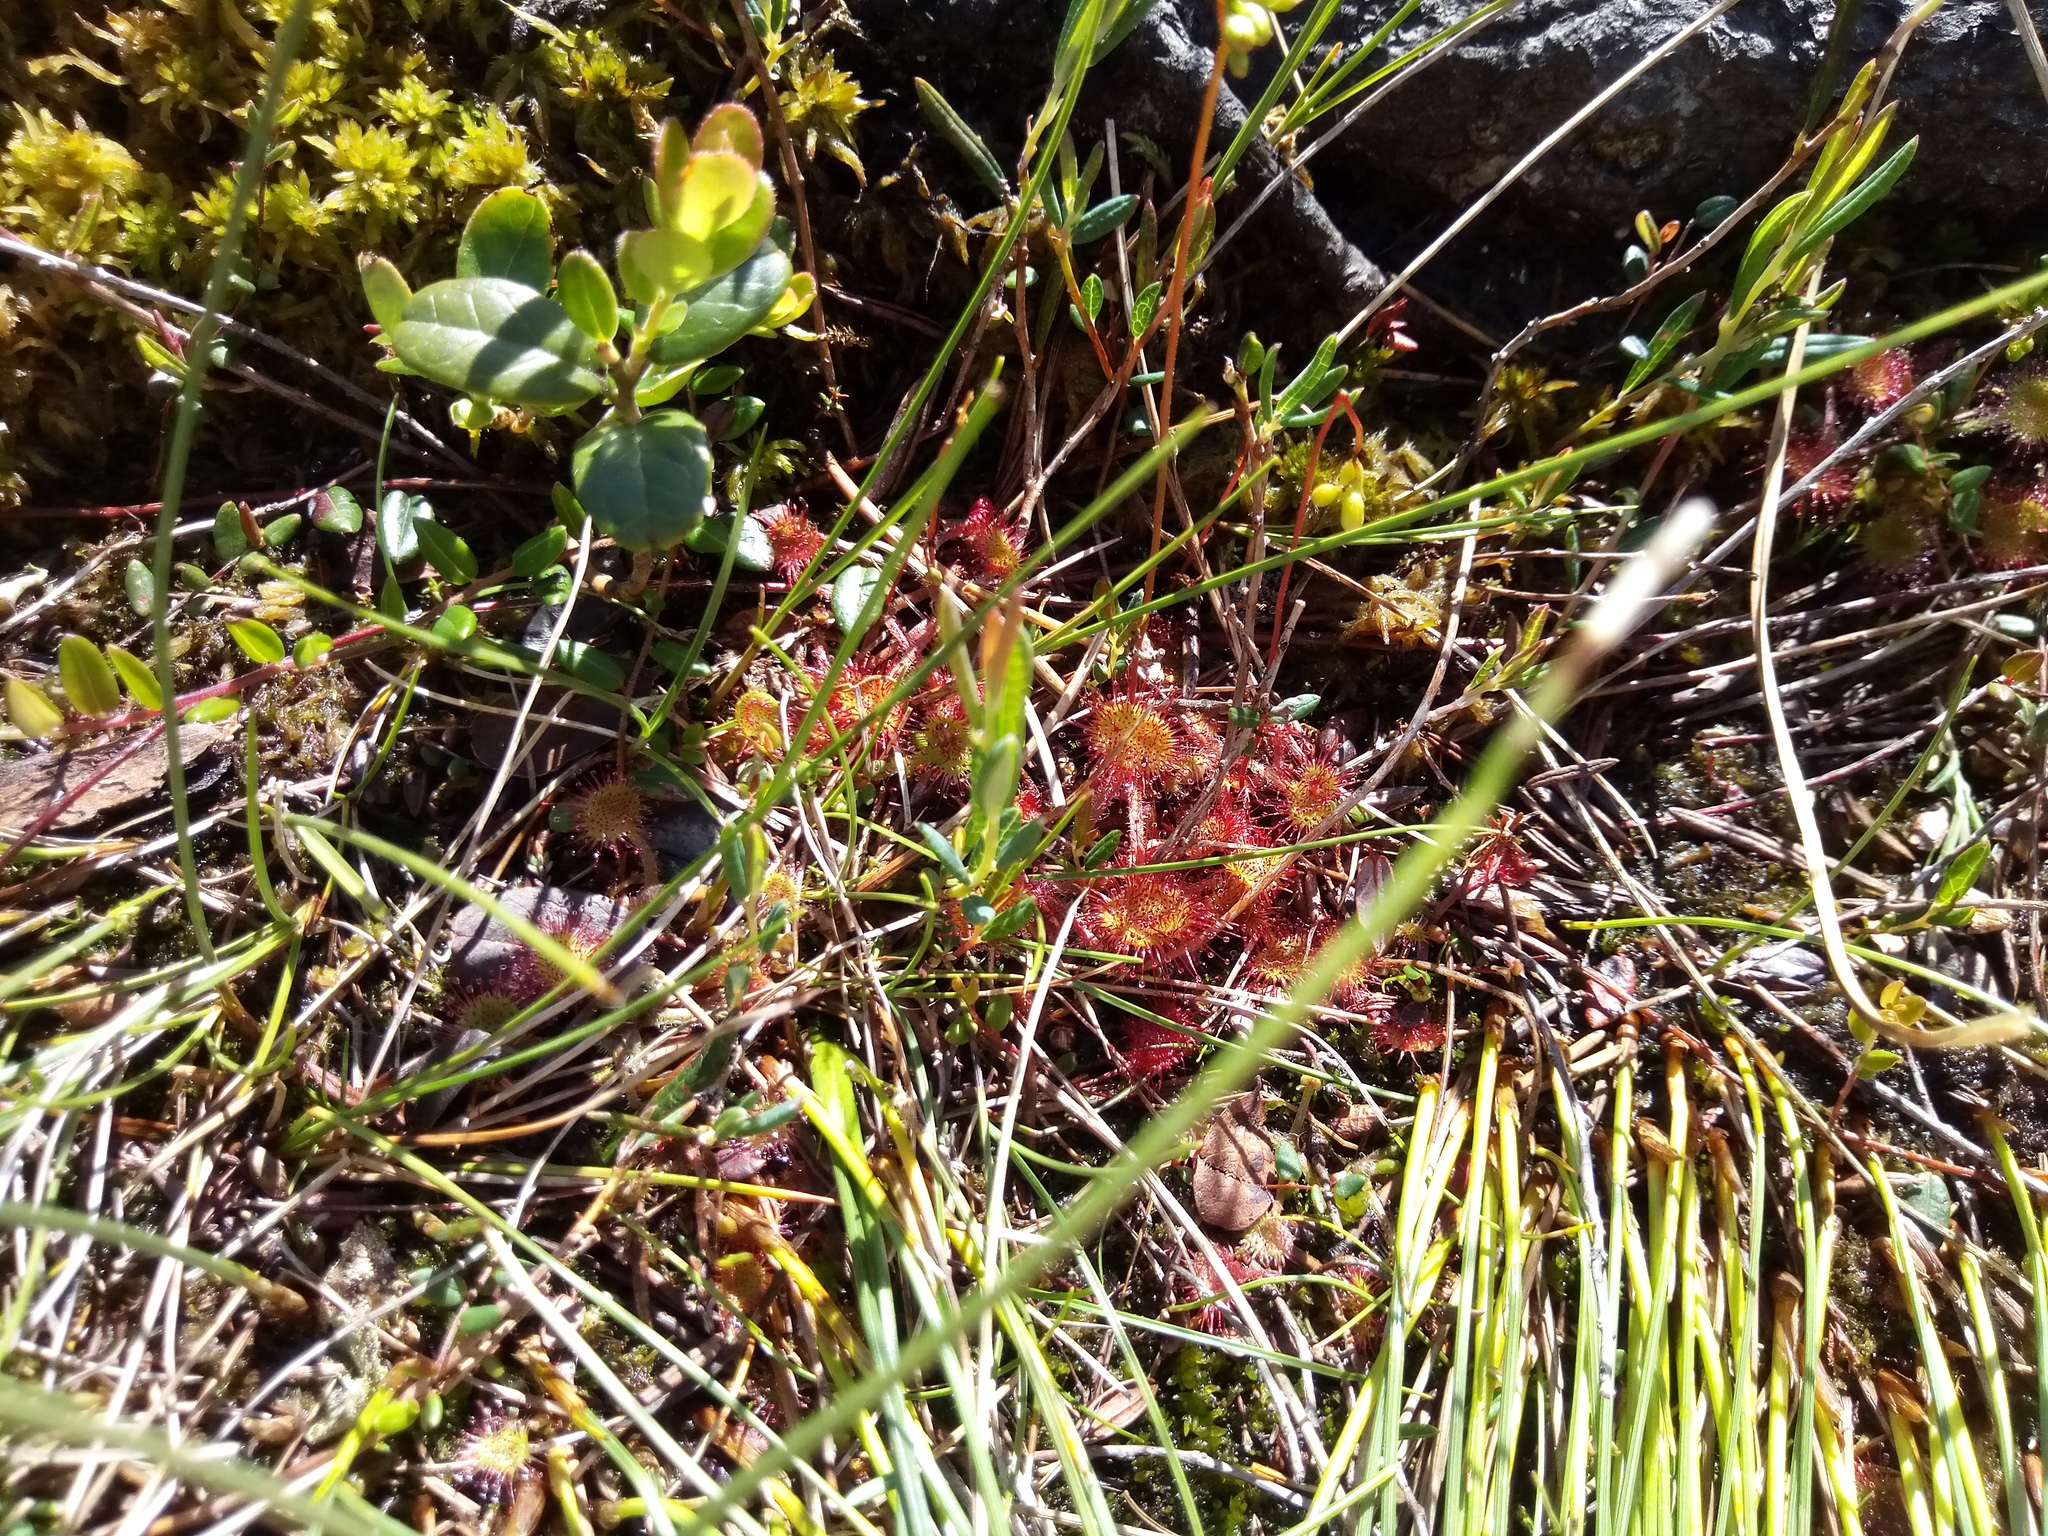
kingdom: Plantae
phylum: Tracheophyta
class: Magnoliopsida
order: Caryophyllales
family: Droseraceae
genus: Drosera
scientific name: Drosera rotundifolia
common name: Round-leaved sundew
